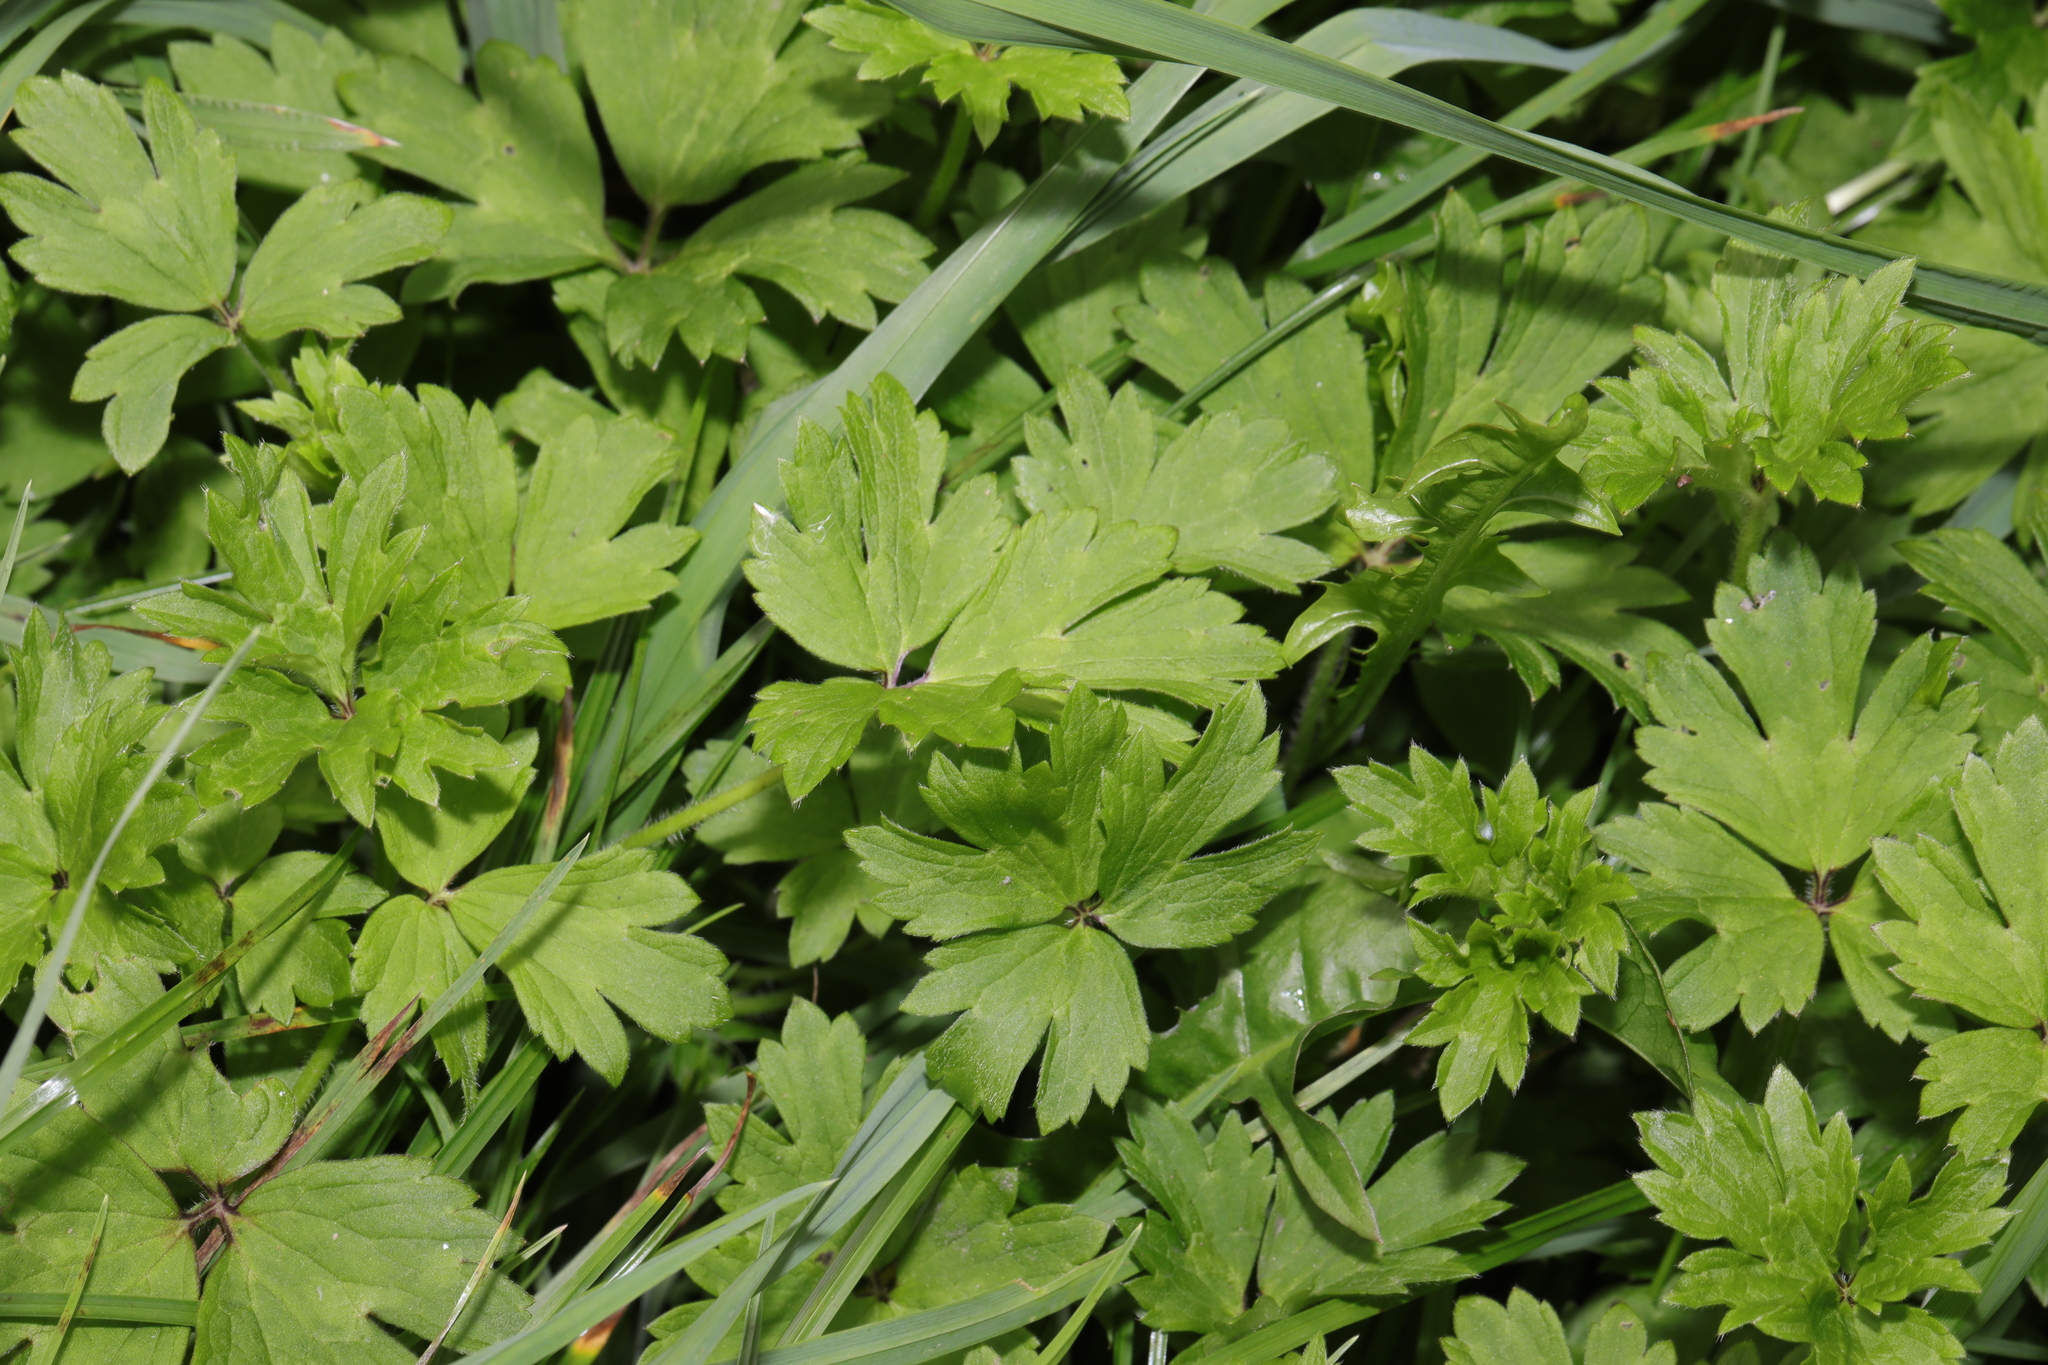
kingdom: Plantae
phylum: Tracheophyta
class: Magnoliopsida
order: Ranunculales
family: Ranunculaceae
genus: Ranunculus
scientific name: Ranunculus repens
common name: Creeping buttercup
